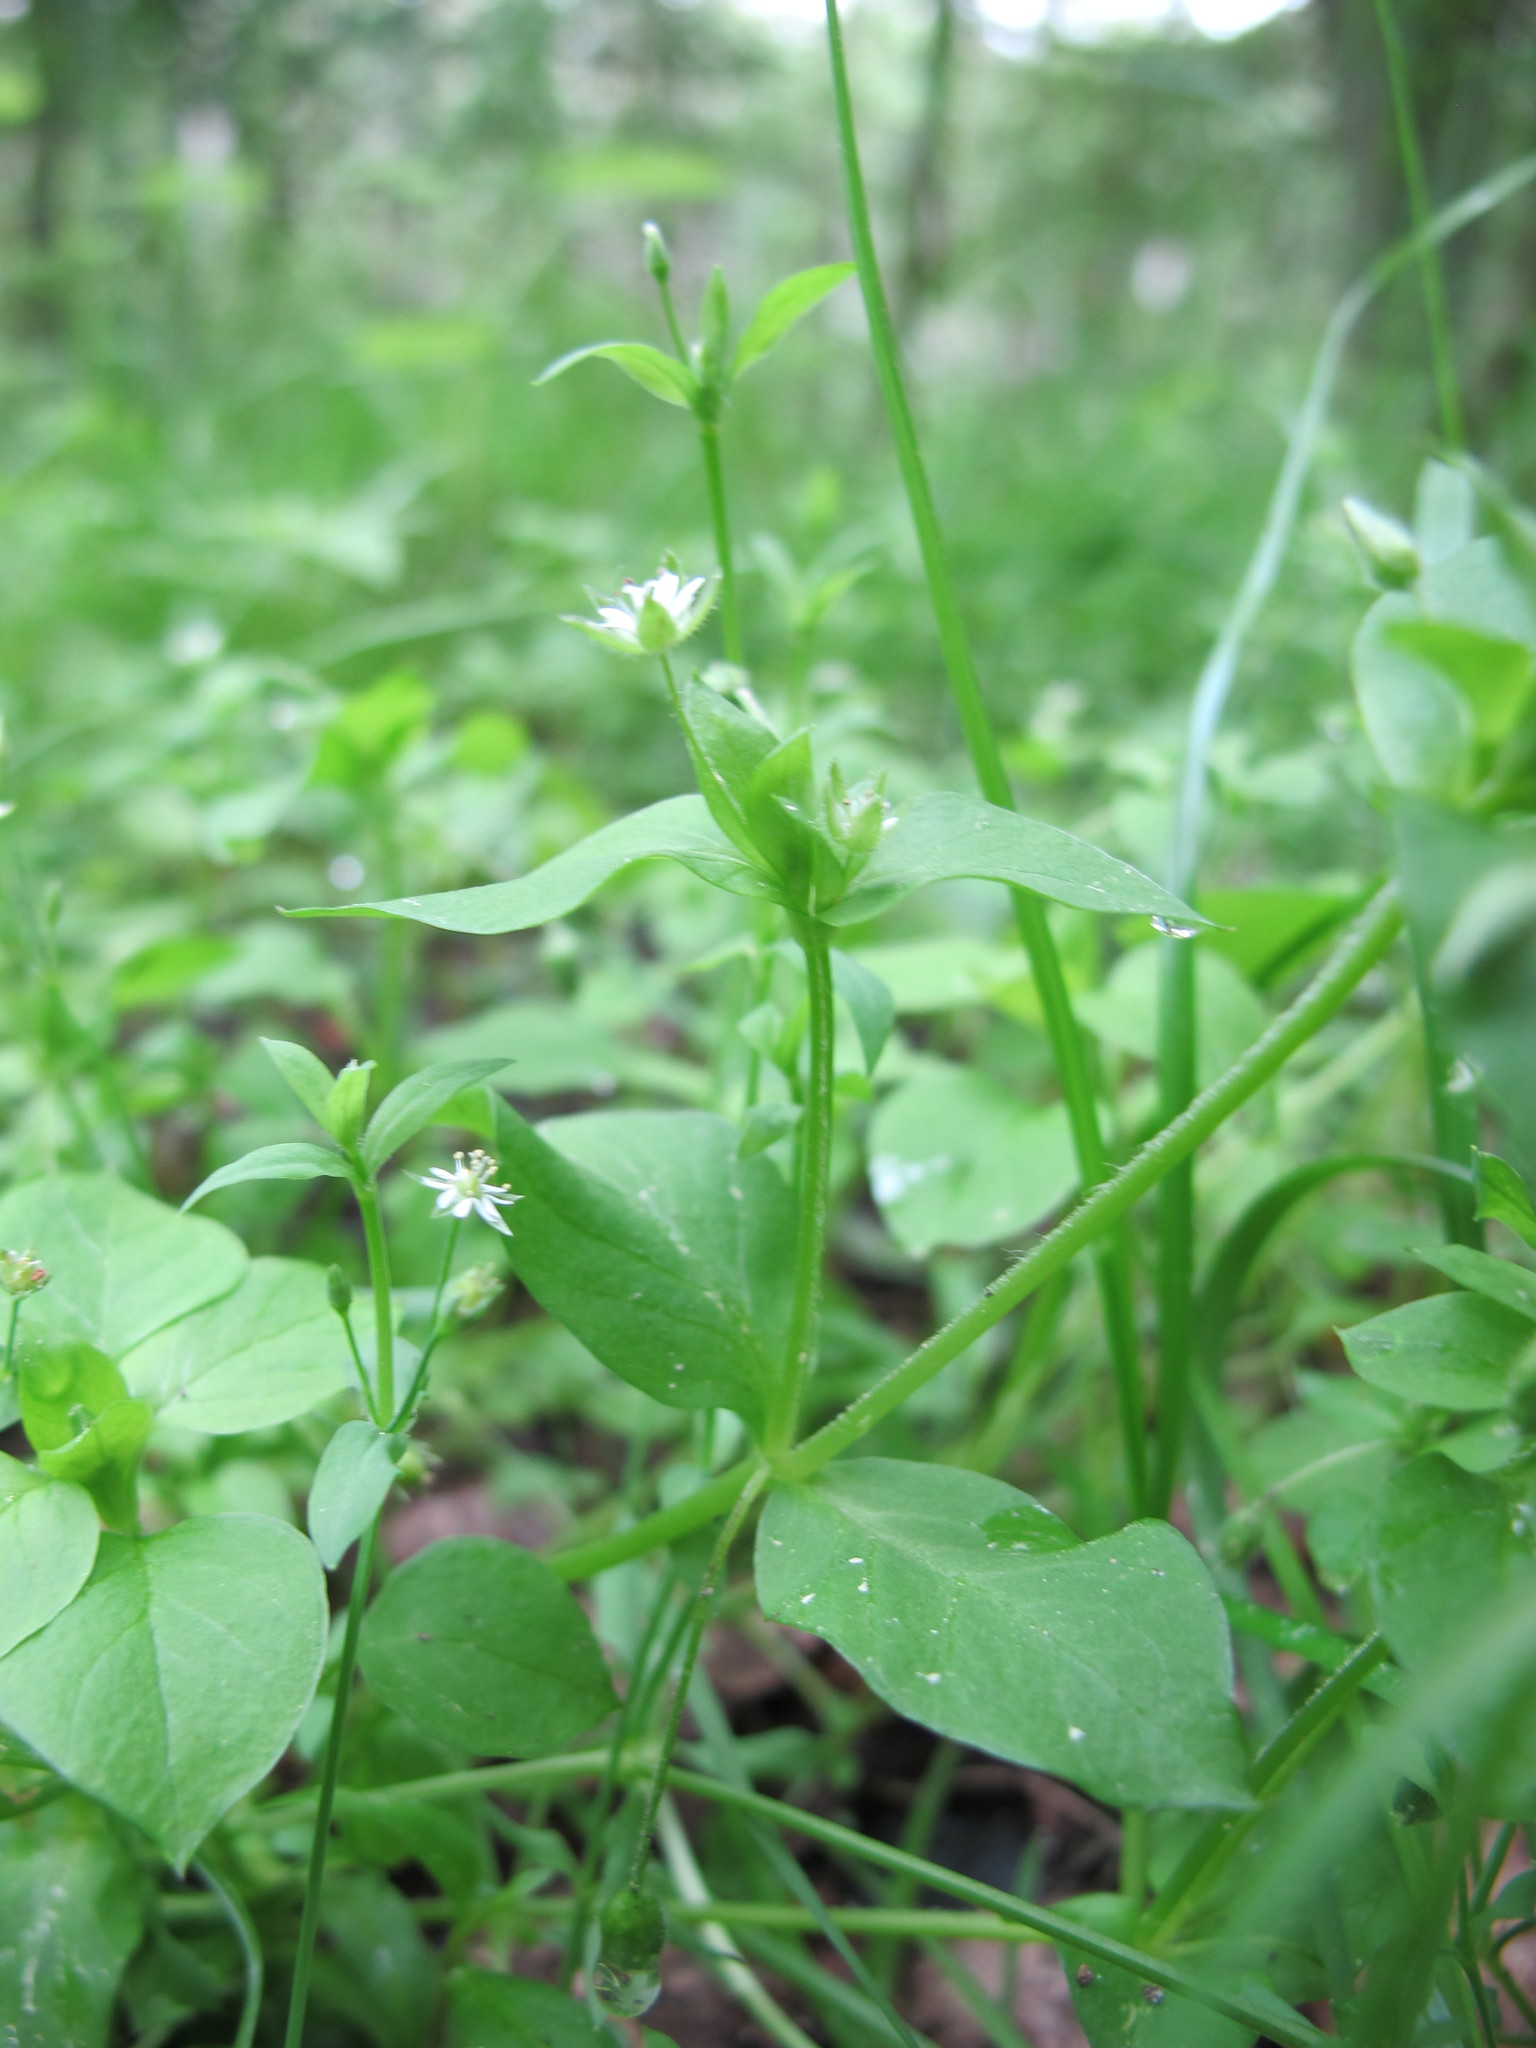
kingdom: Plantae
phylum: Tracheophyta
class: Magnoliopsida
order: Caryophyllales
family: Caryophyllaceae
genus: Stellaria
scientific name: Stellaria media
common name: Common chickweed
